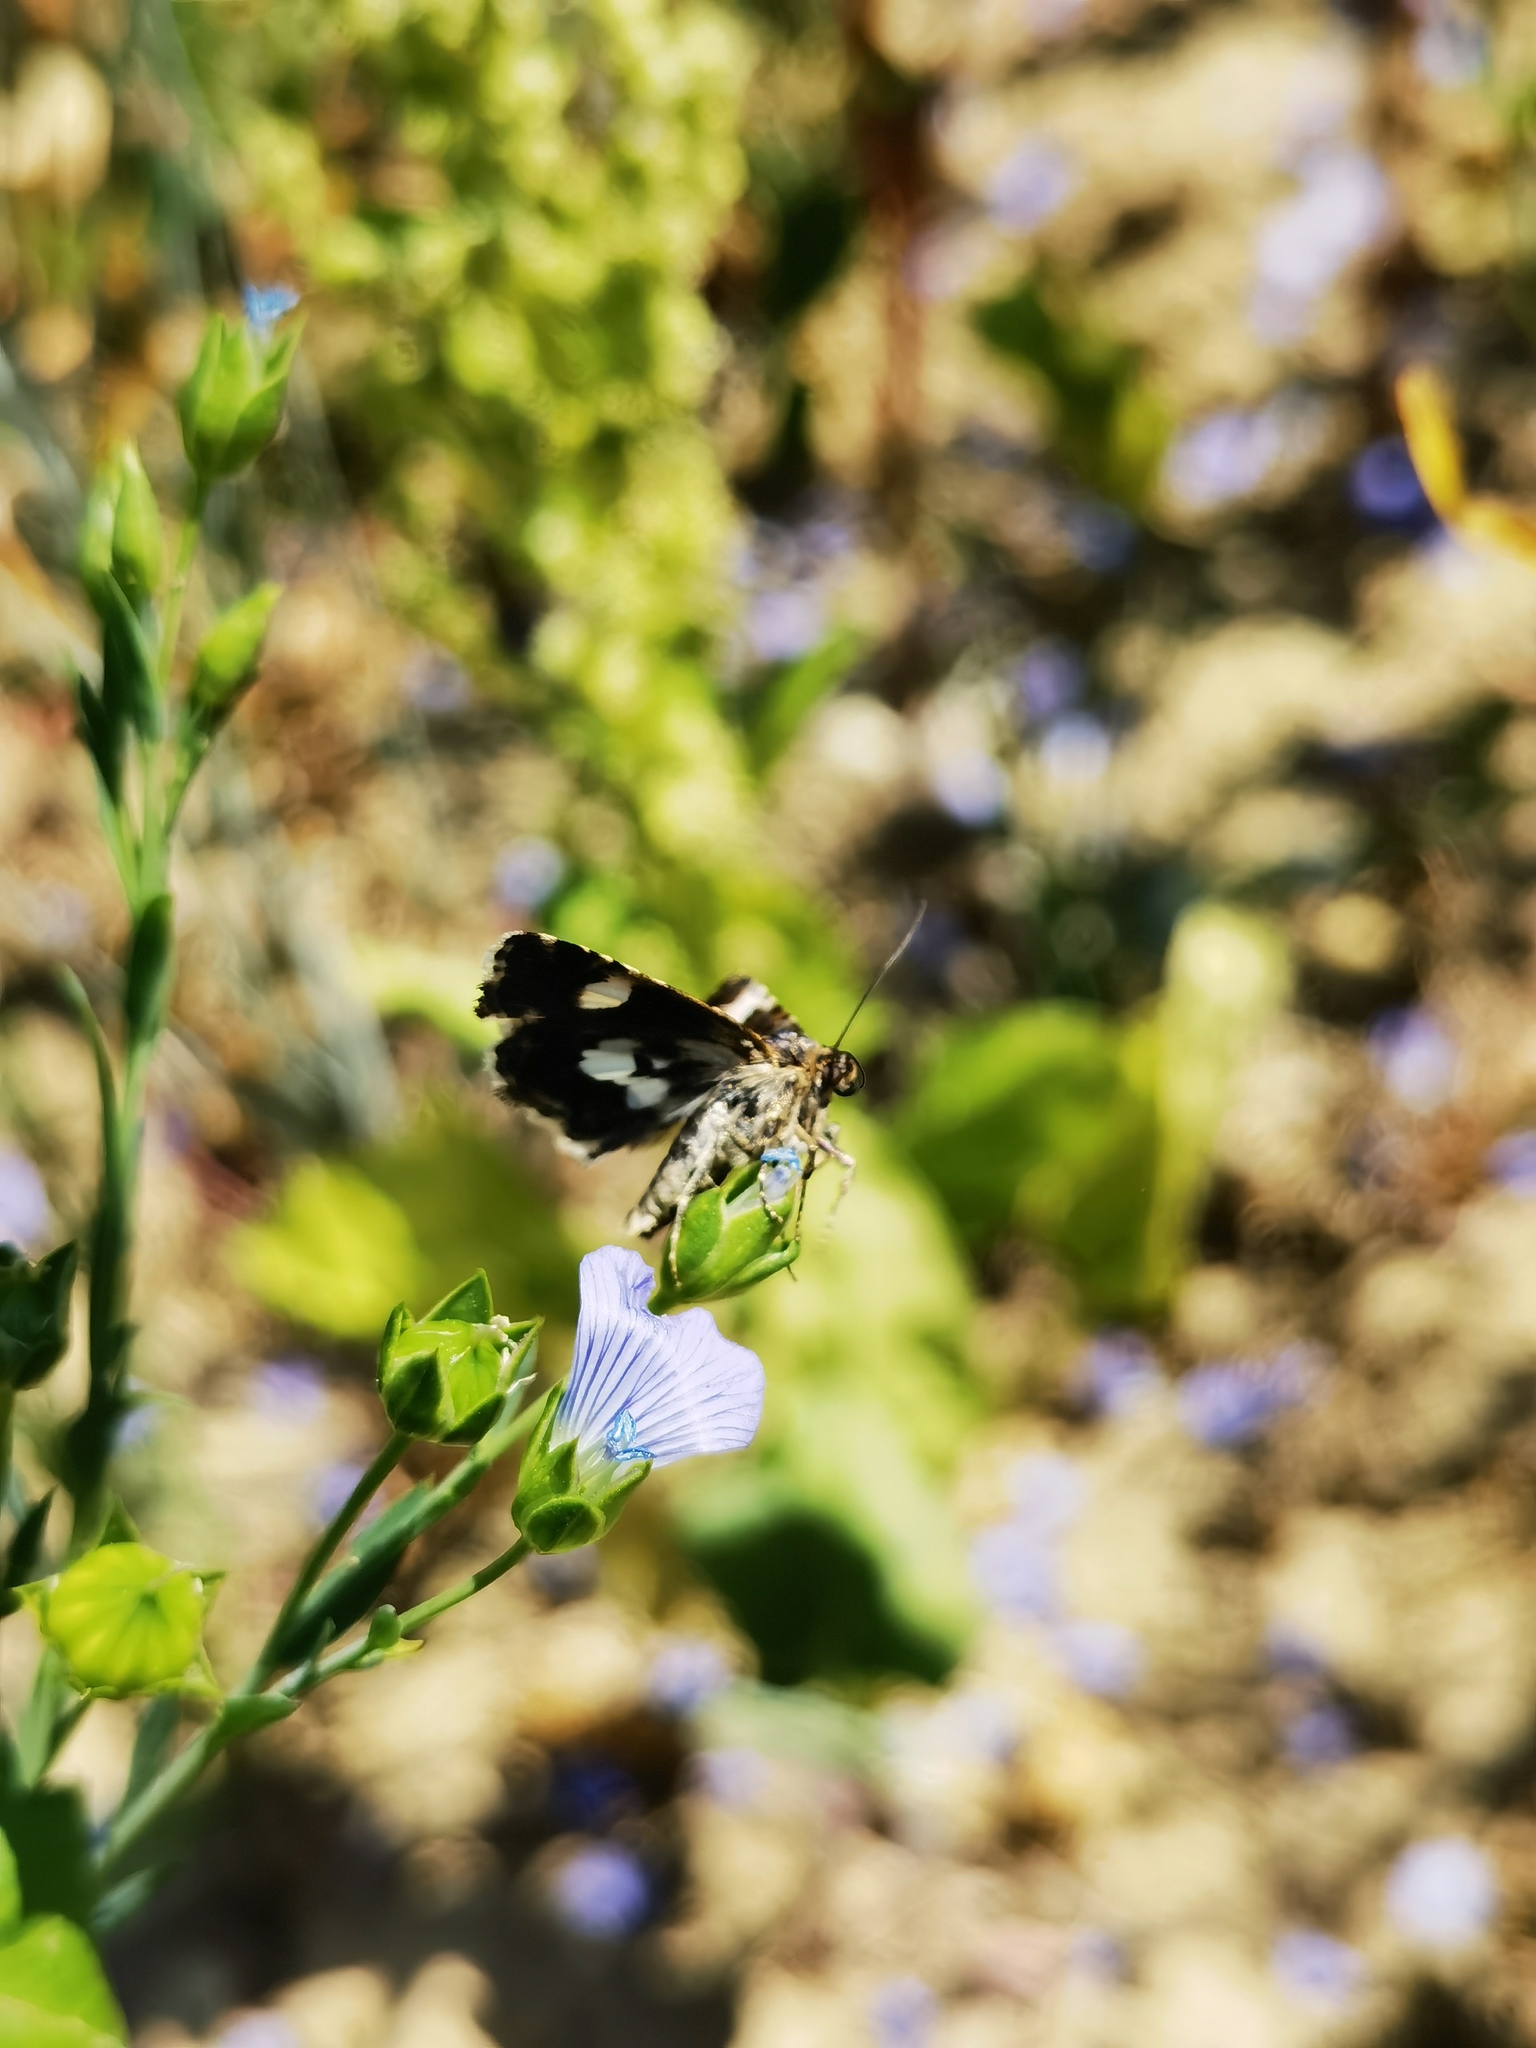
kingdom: Animalia
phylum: Arthropoda
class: Insecta
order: Lepidoptera
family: Erebidae
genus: Tyta
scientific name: Tyta luctuosa
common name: Four-spotted
